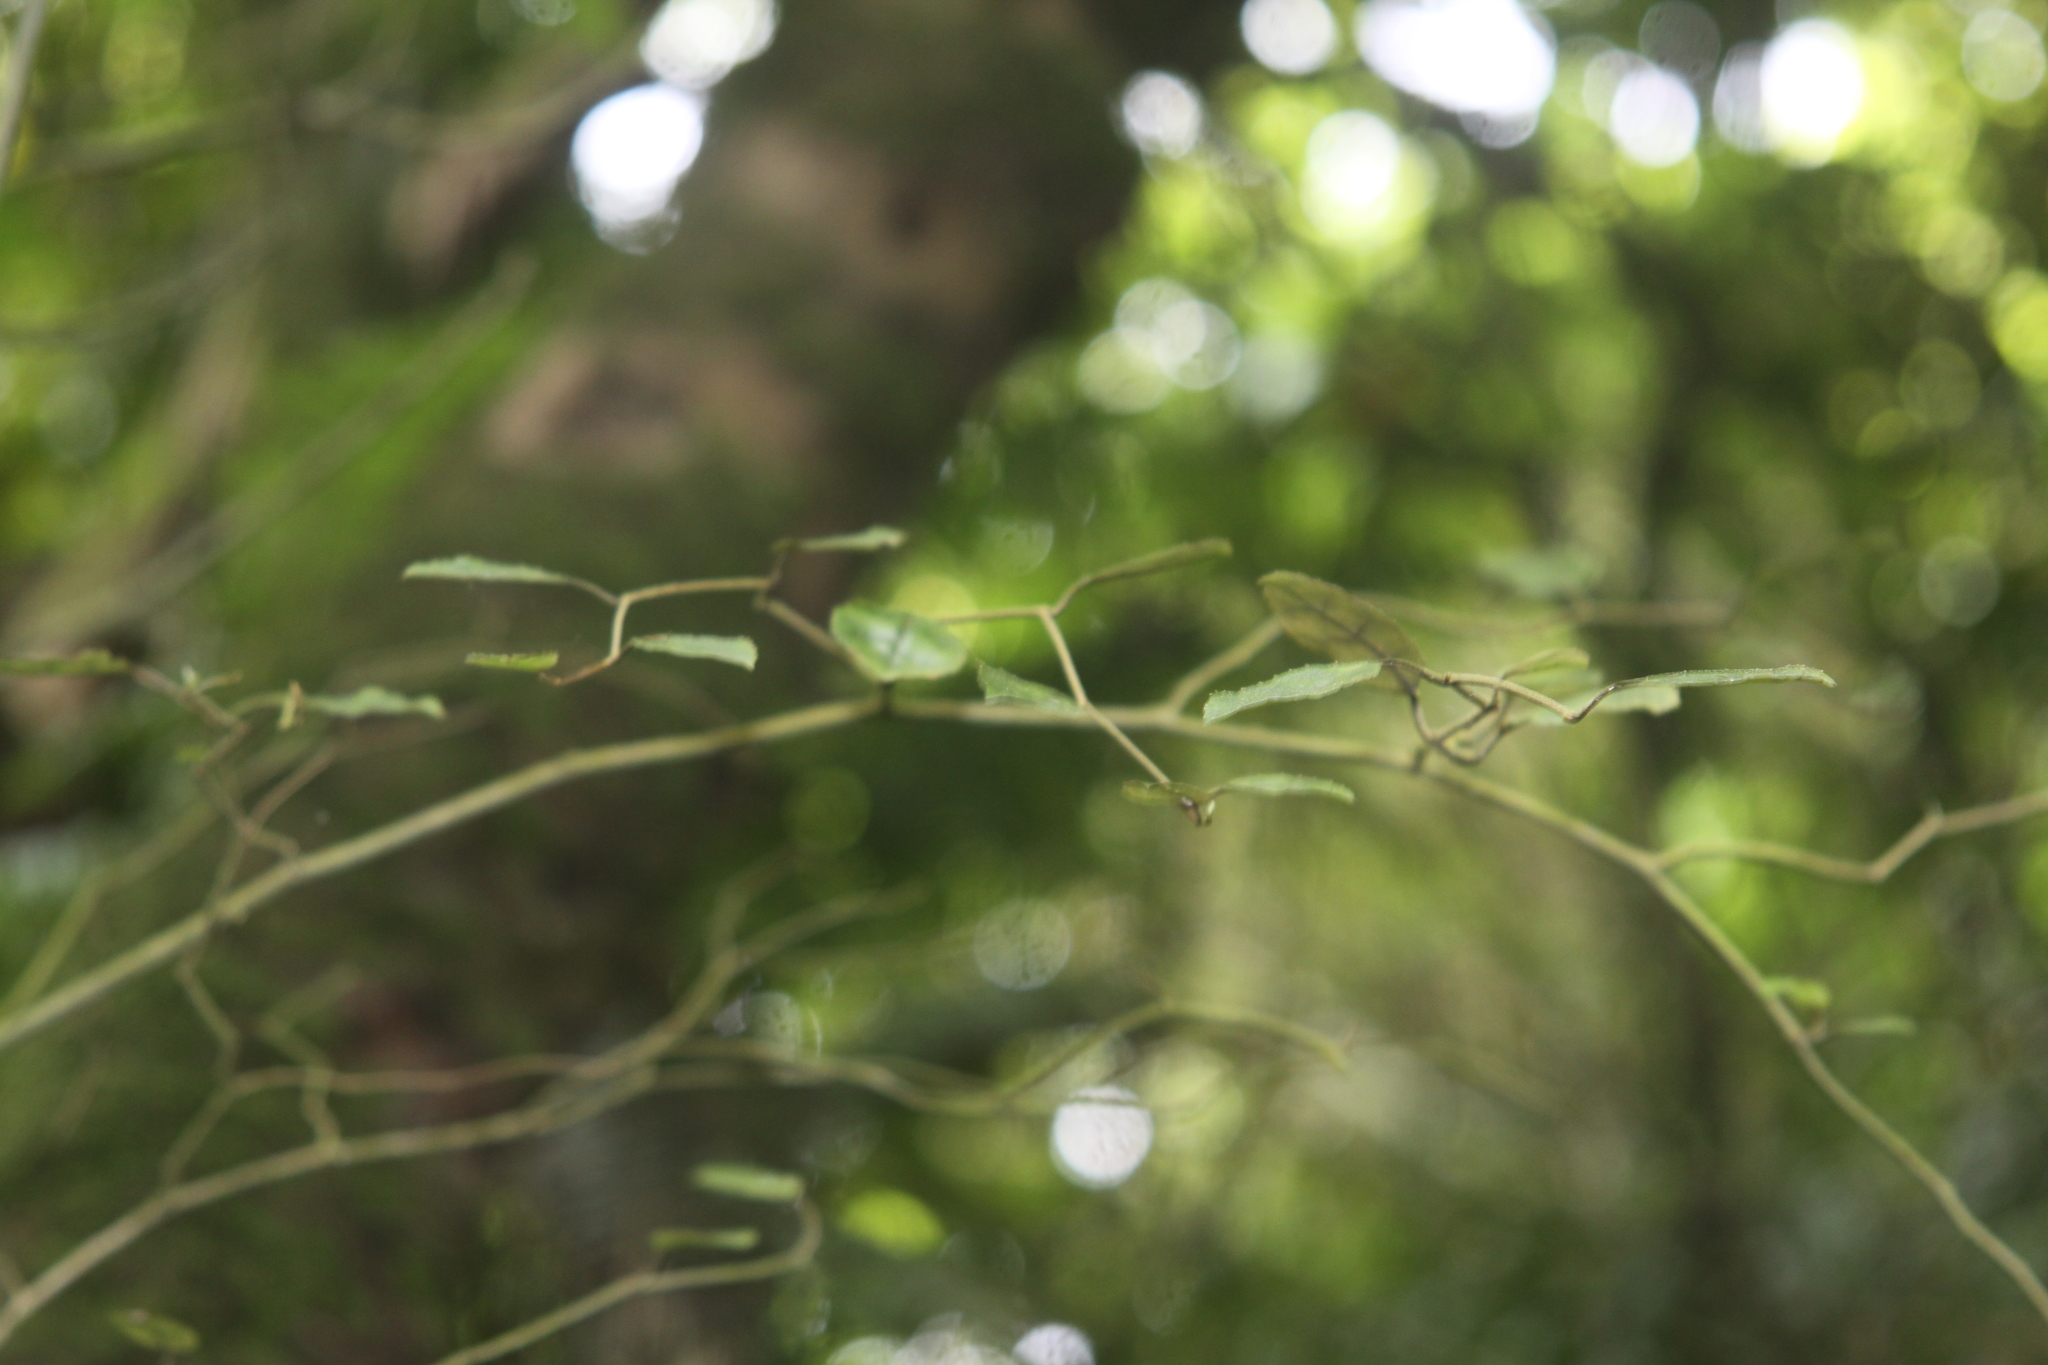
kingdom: Plantae
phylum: Tracheophyta
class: Magnoliopsida
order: Asterales
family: Rousseaceae
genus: Carpodetus
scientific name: Carpodetus serratus
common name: White mapau
